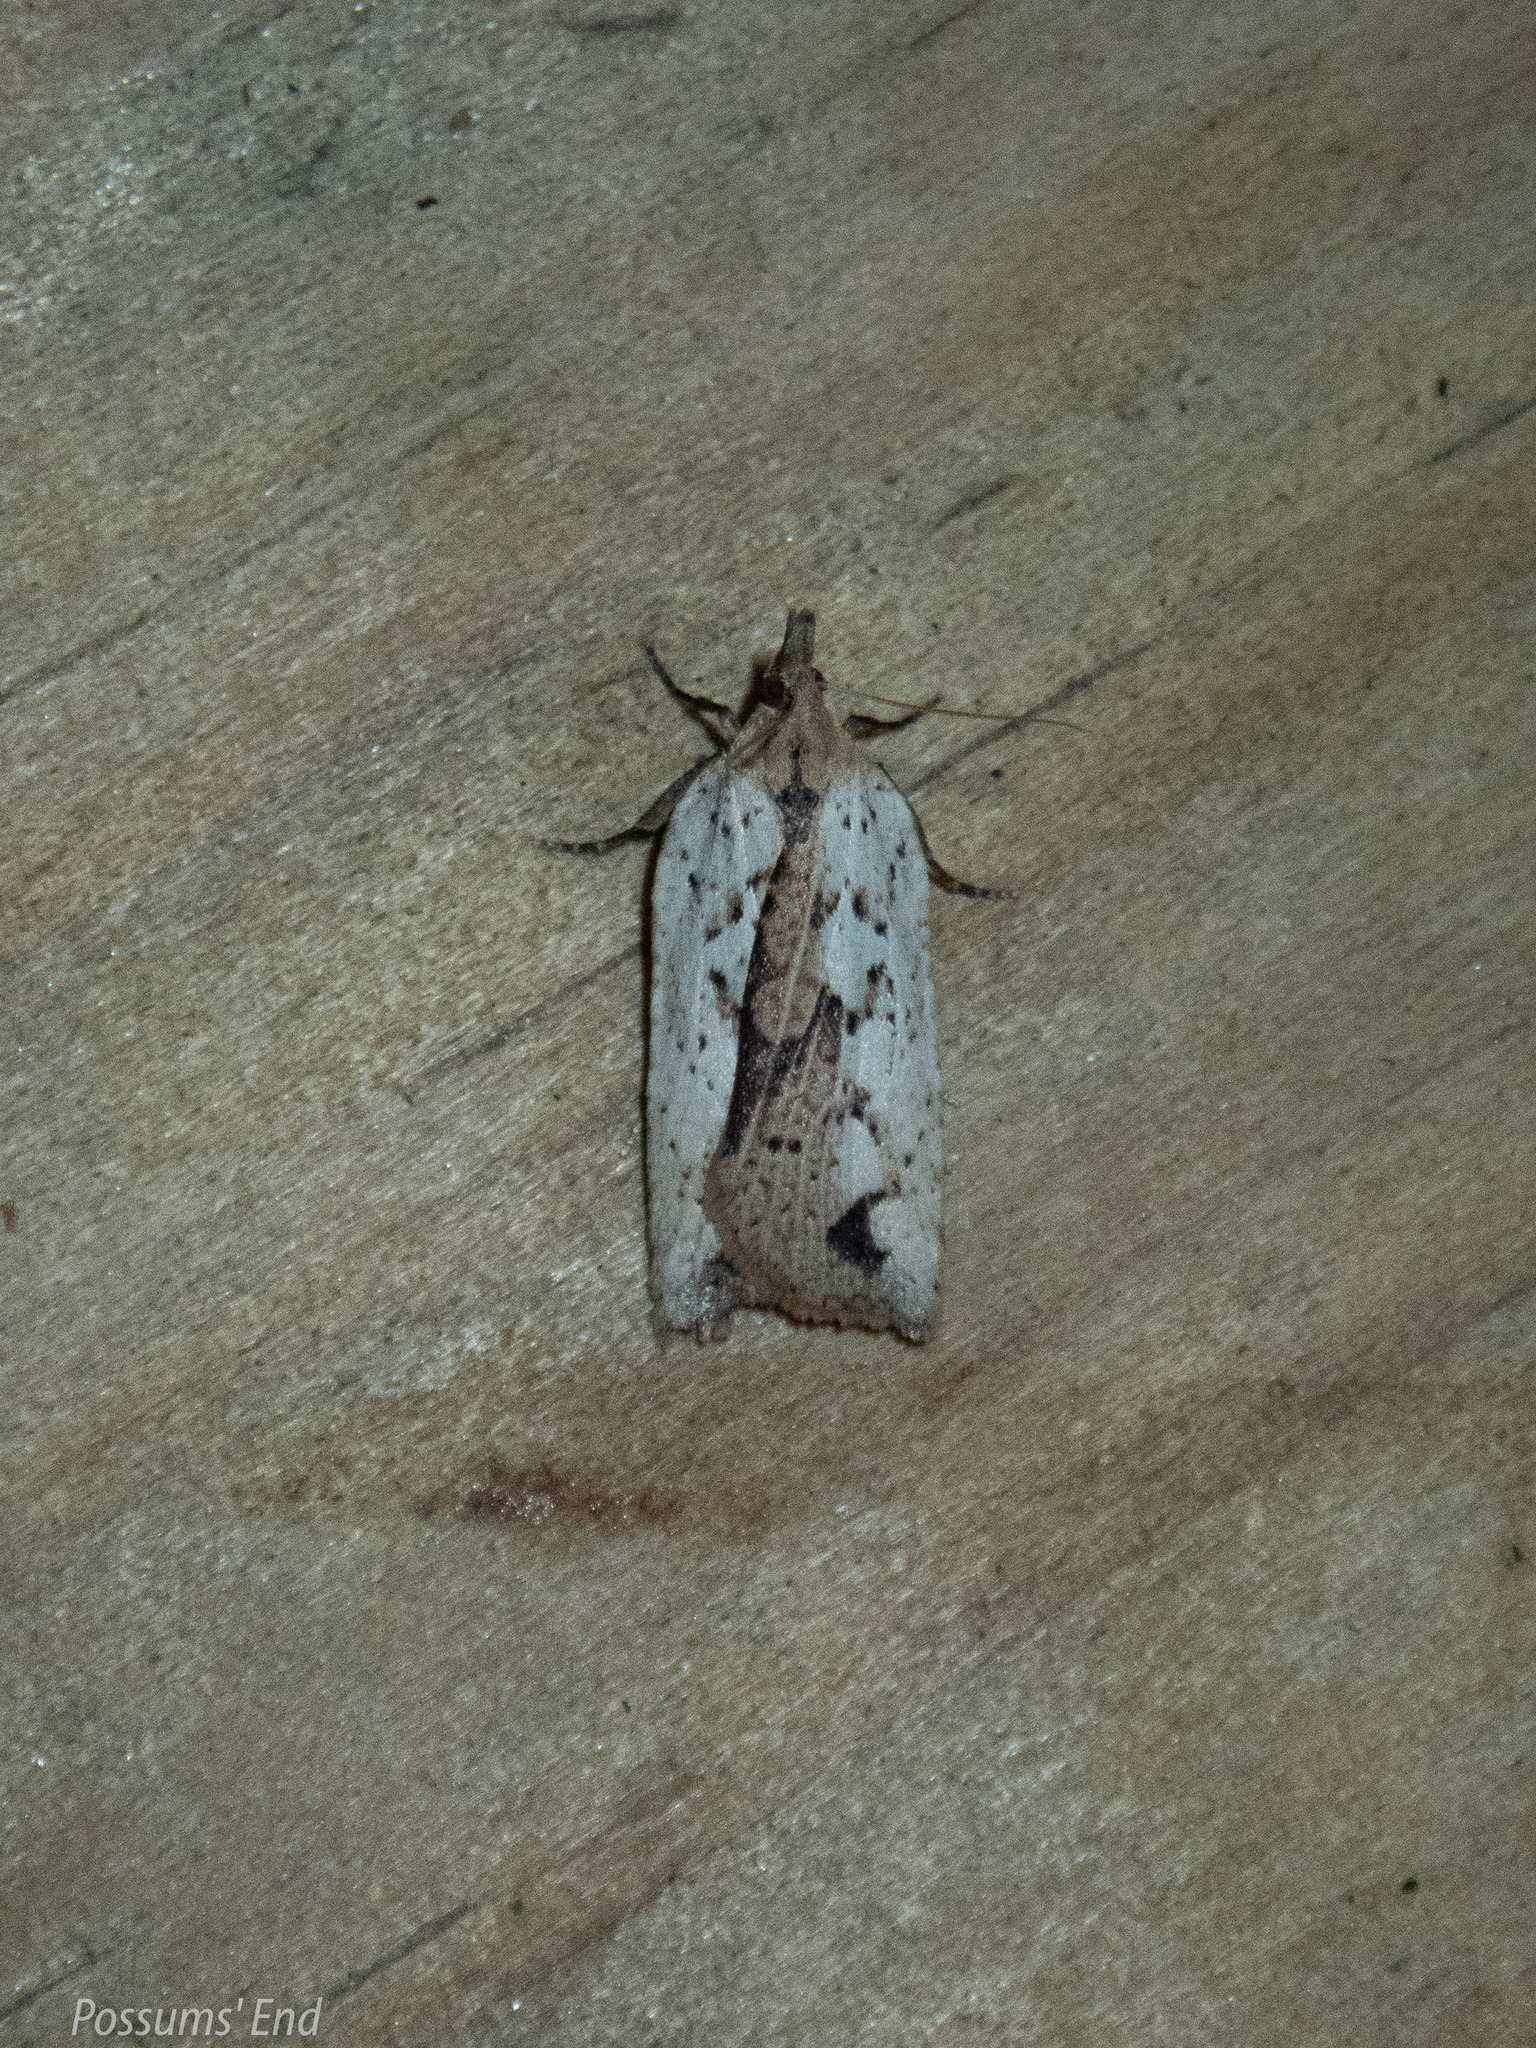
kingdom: Animalia
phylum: Arthropoda
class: Insecta
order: Lepidoptera
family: Tortricidae
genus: Planotortrix
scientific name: Planotortrix notophaea
